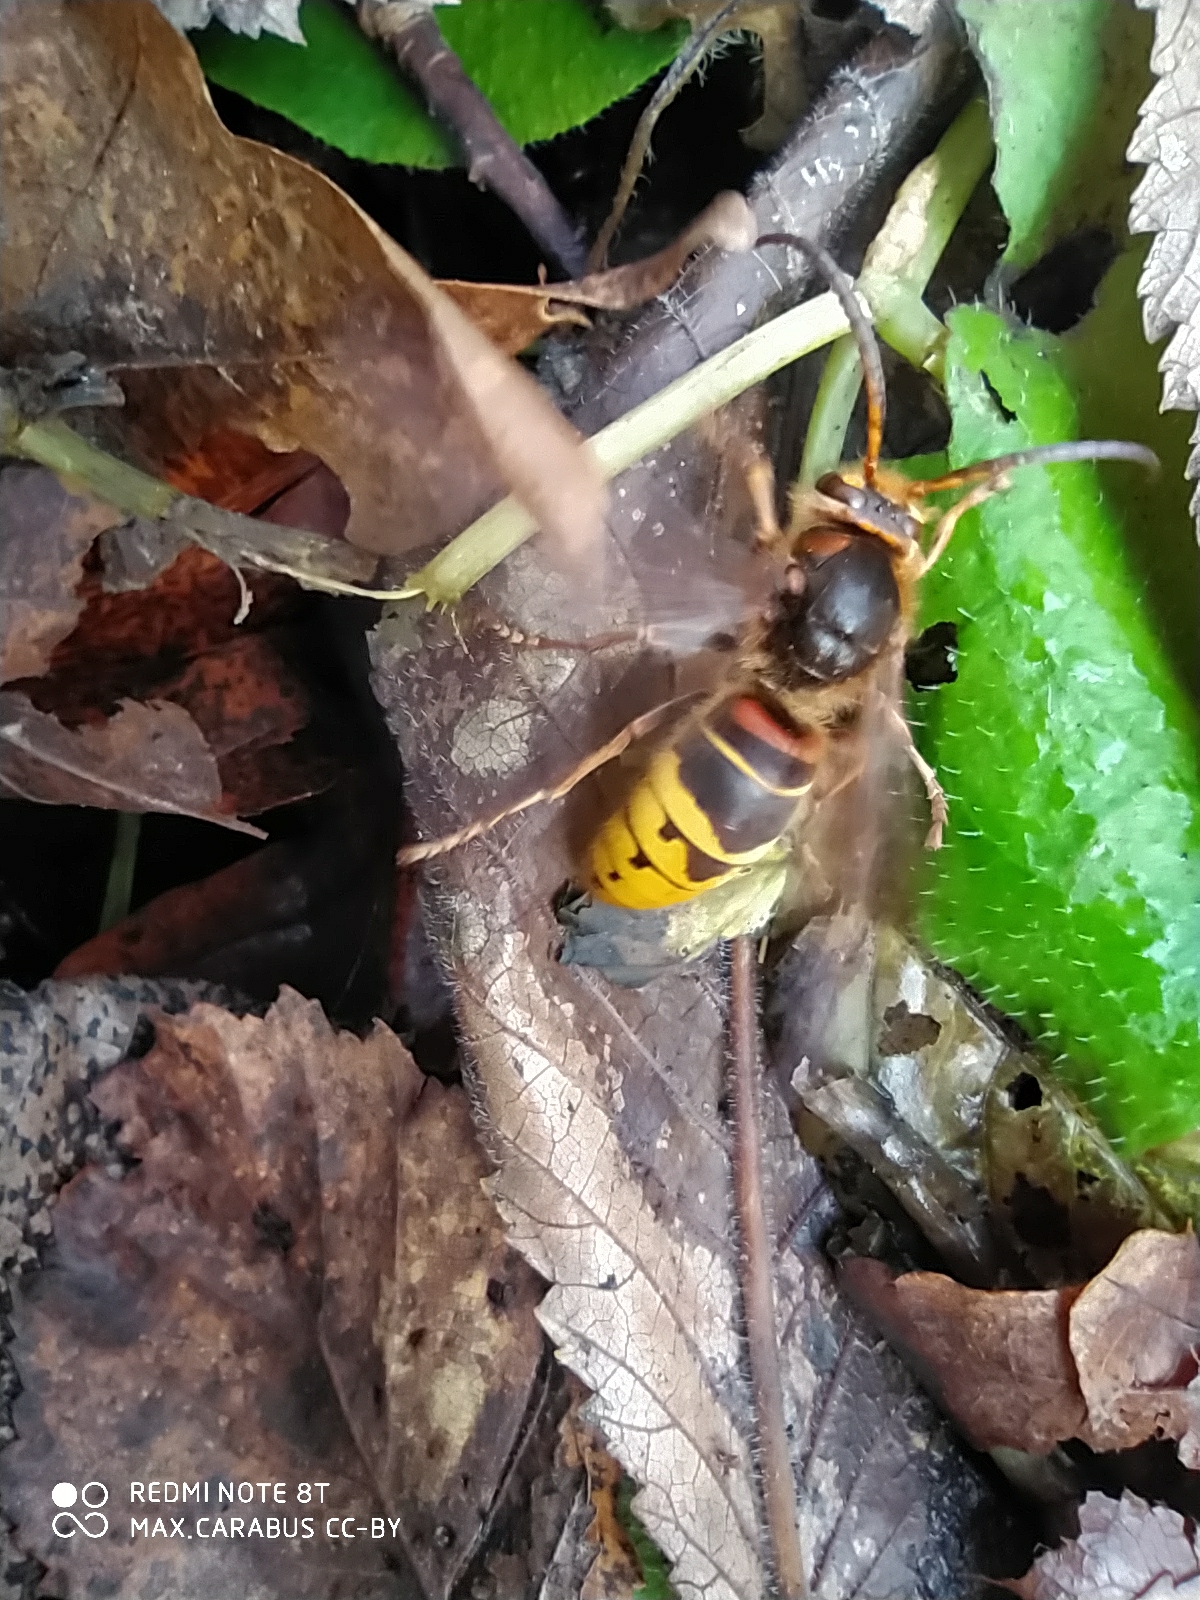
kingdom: Animalia
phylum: Arthropoda
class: Insecta
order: Hymenoptera
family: Vespidae
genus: Vespa
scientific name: Vespa crabro
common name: Hornet
